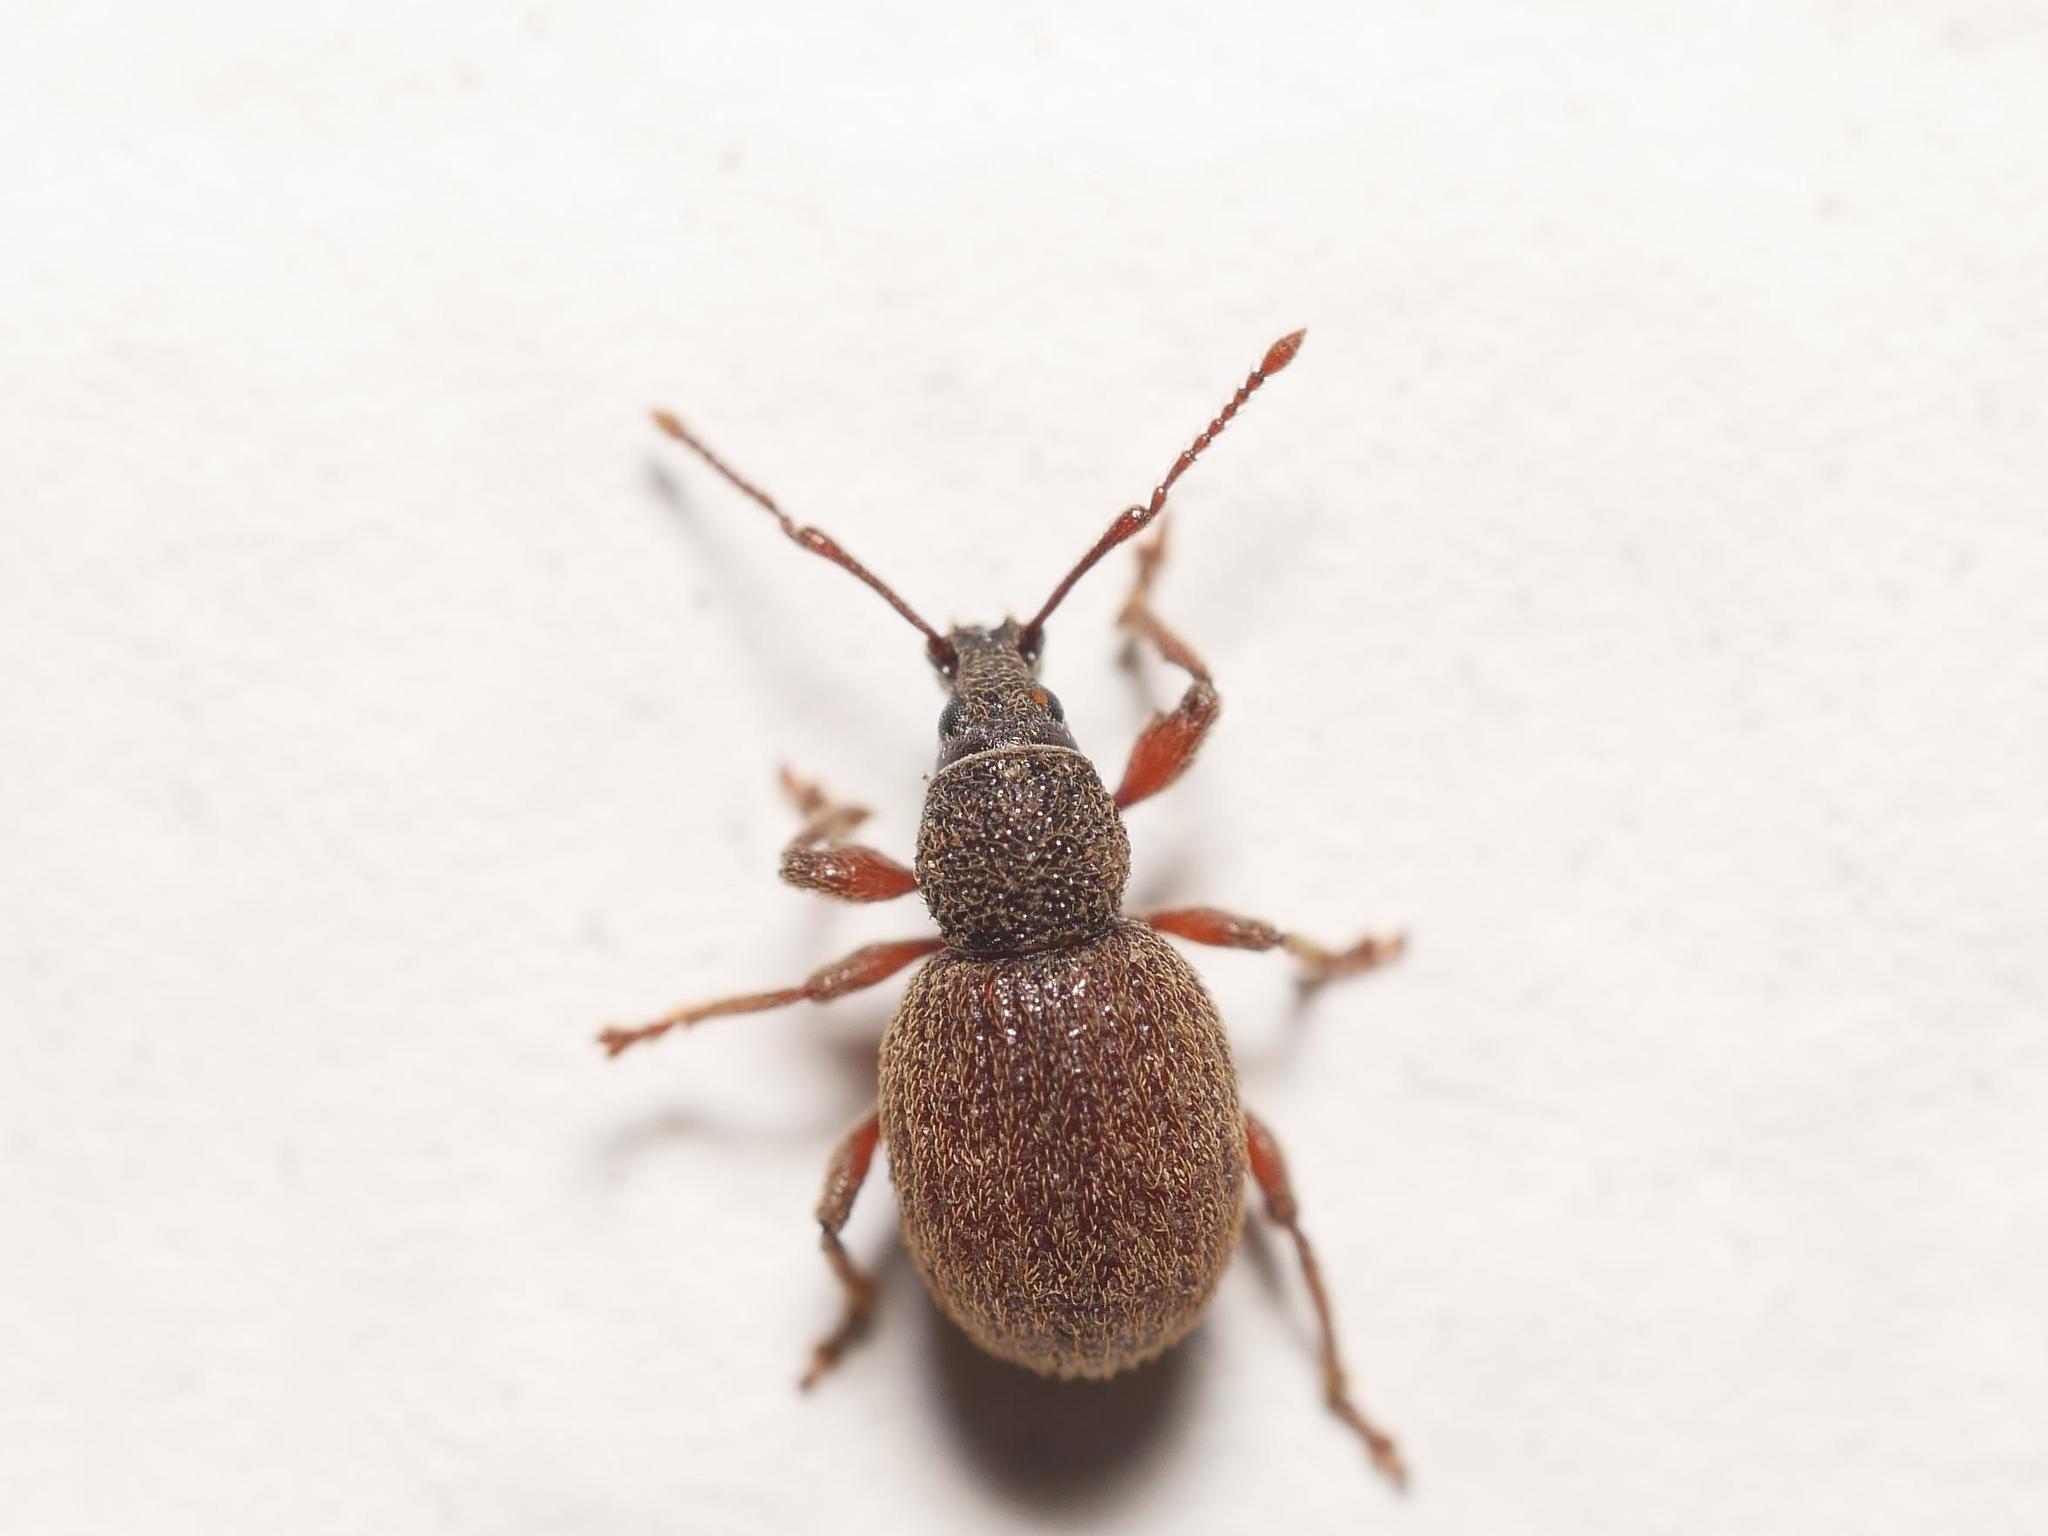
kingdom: Animalia
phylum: Arthropoda
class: Insecta
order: Coleoptera
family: Curculionidae
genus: Otiorhynchus
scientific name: Otiorhynchus smreczynskii
